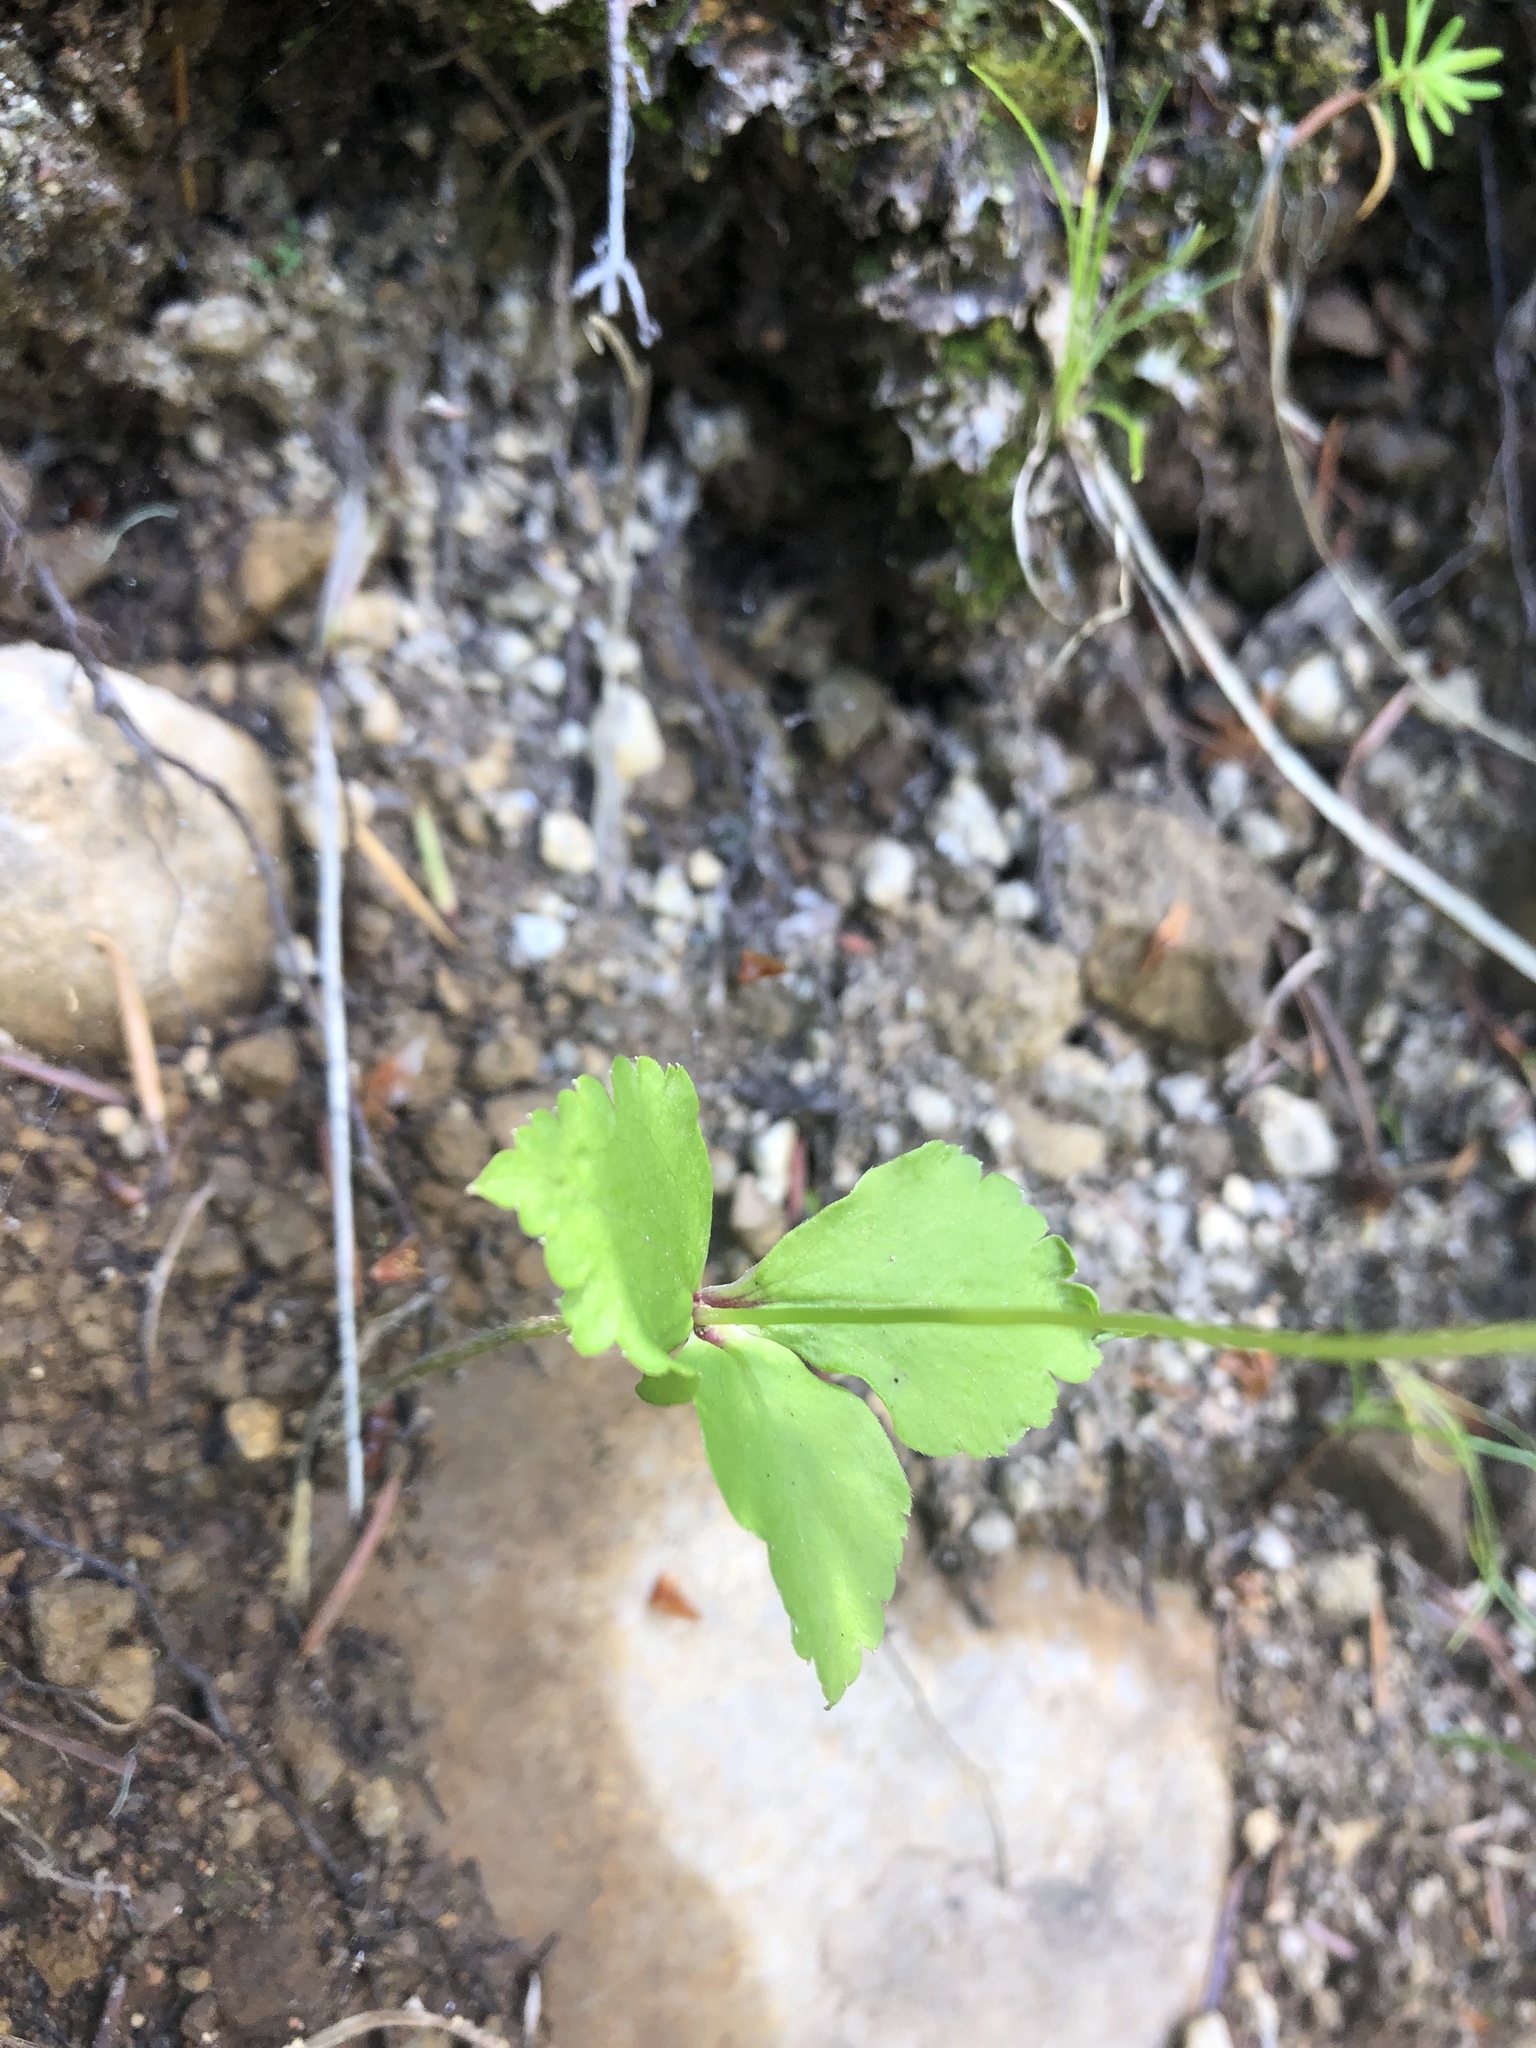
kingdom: Plantae
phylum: Tracheophyta
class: Magnoliopsida
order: Ranunculales
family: Ranunculaceae
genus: Anemonastrum
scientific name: Anemonastrum deltoideum
